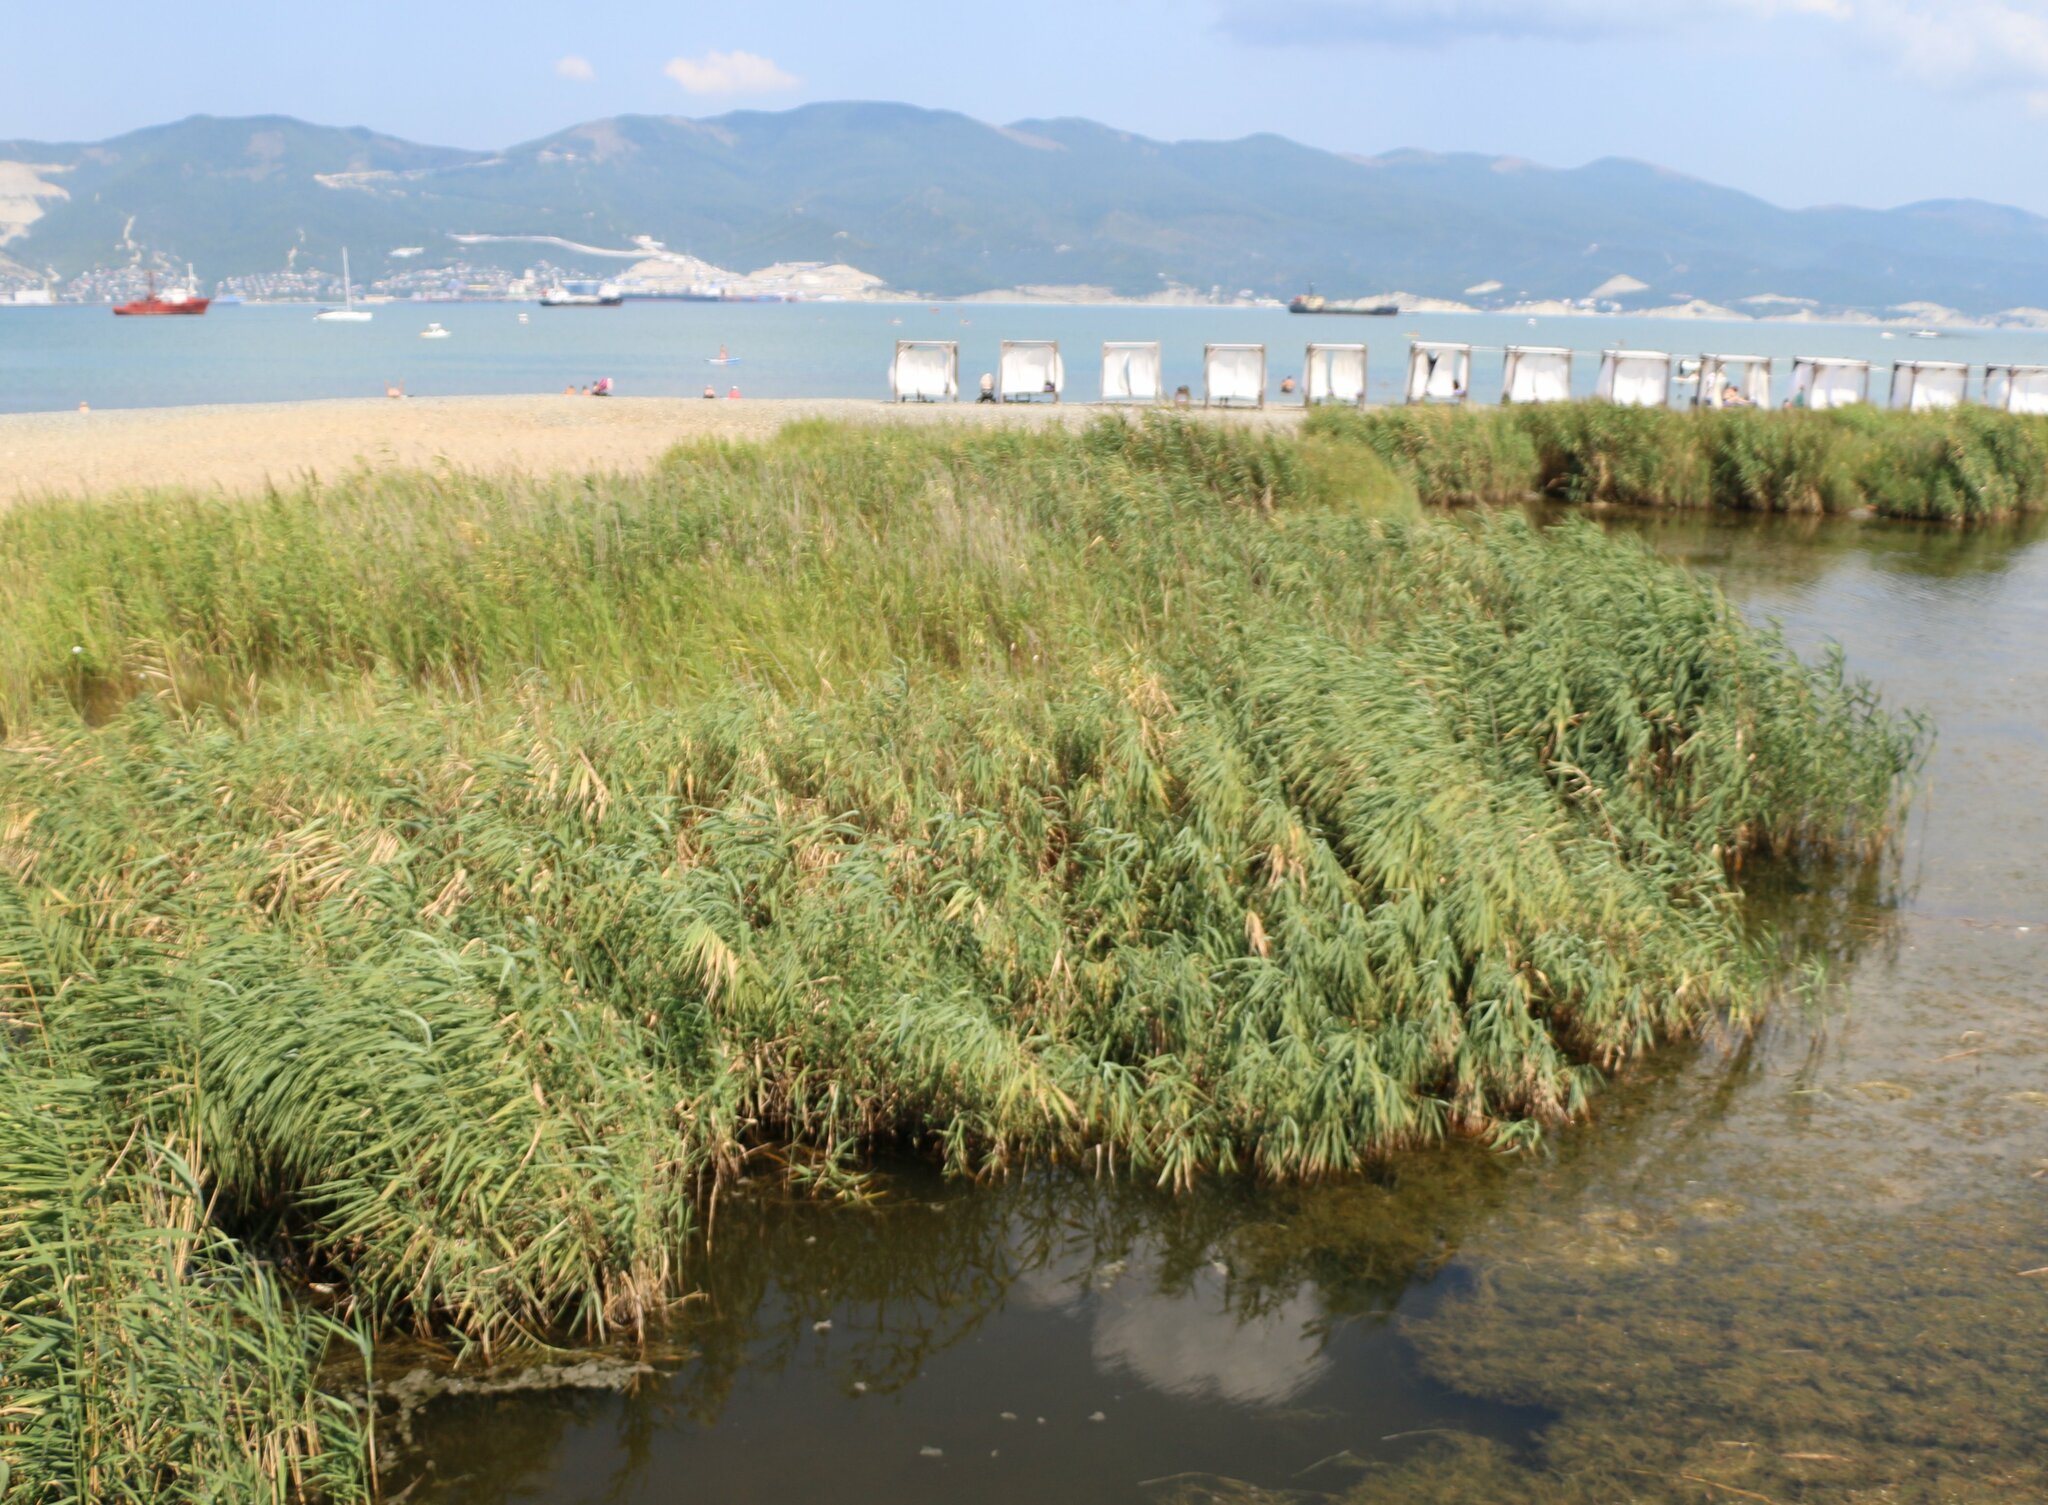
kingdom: Plantae
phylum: Tracheophyta
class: Liliopsida
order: Poales
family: Poaceae
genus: Phragmites
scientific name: Phragmites australis
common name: Common reed
